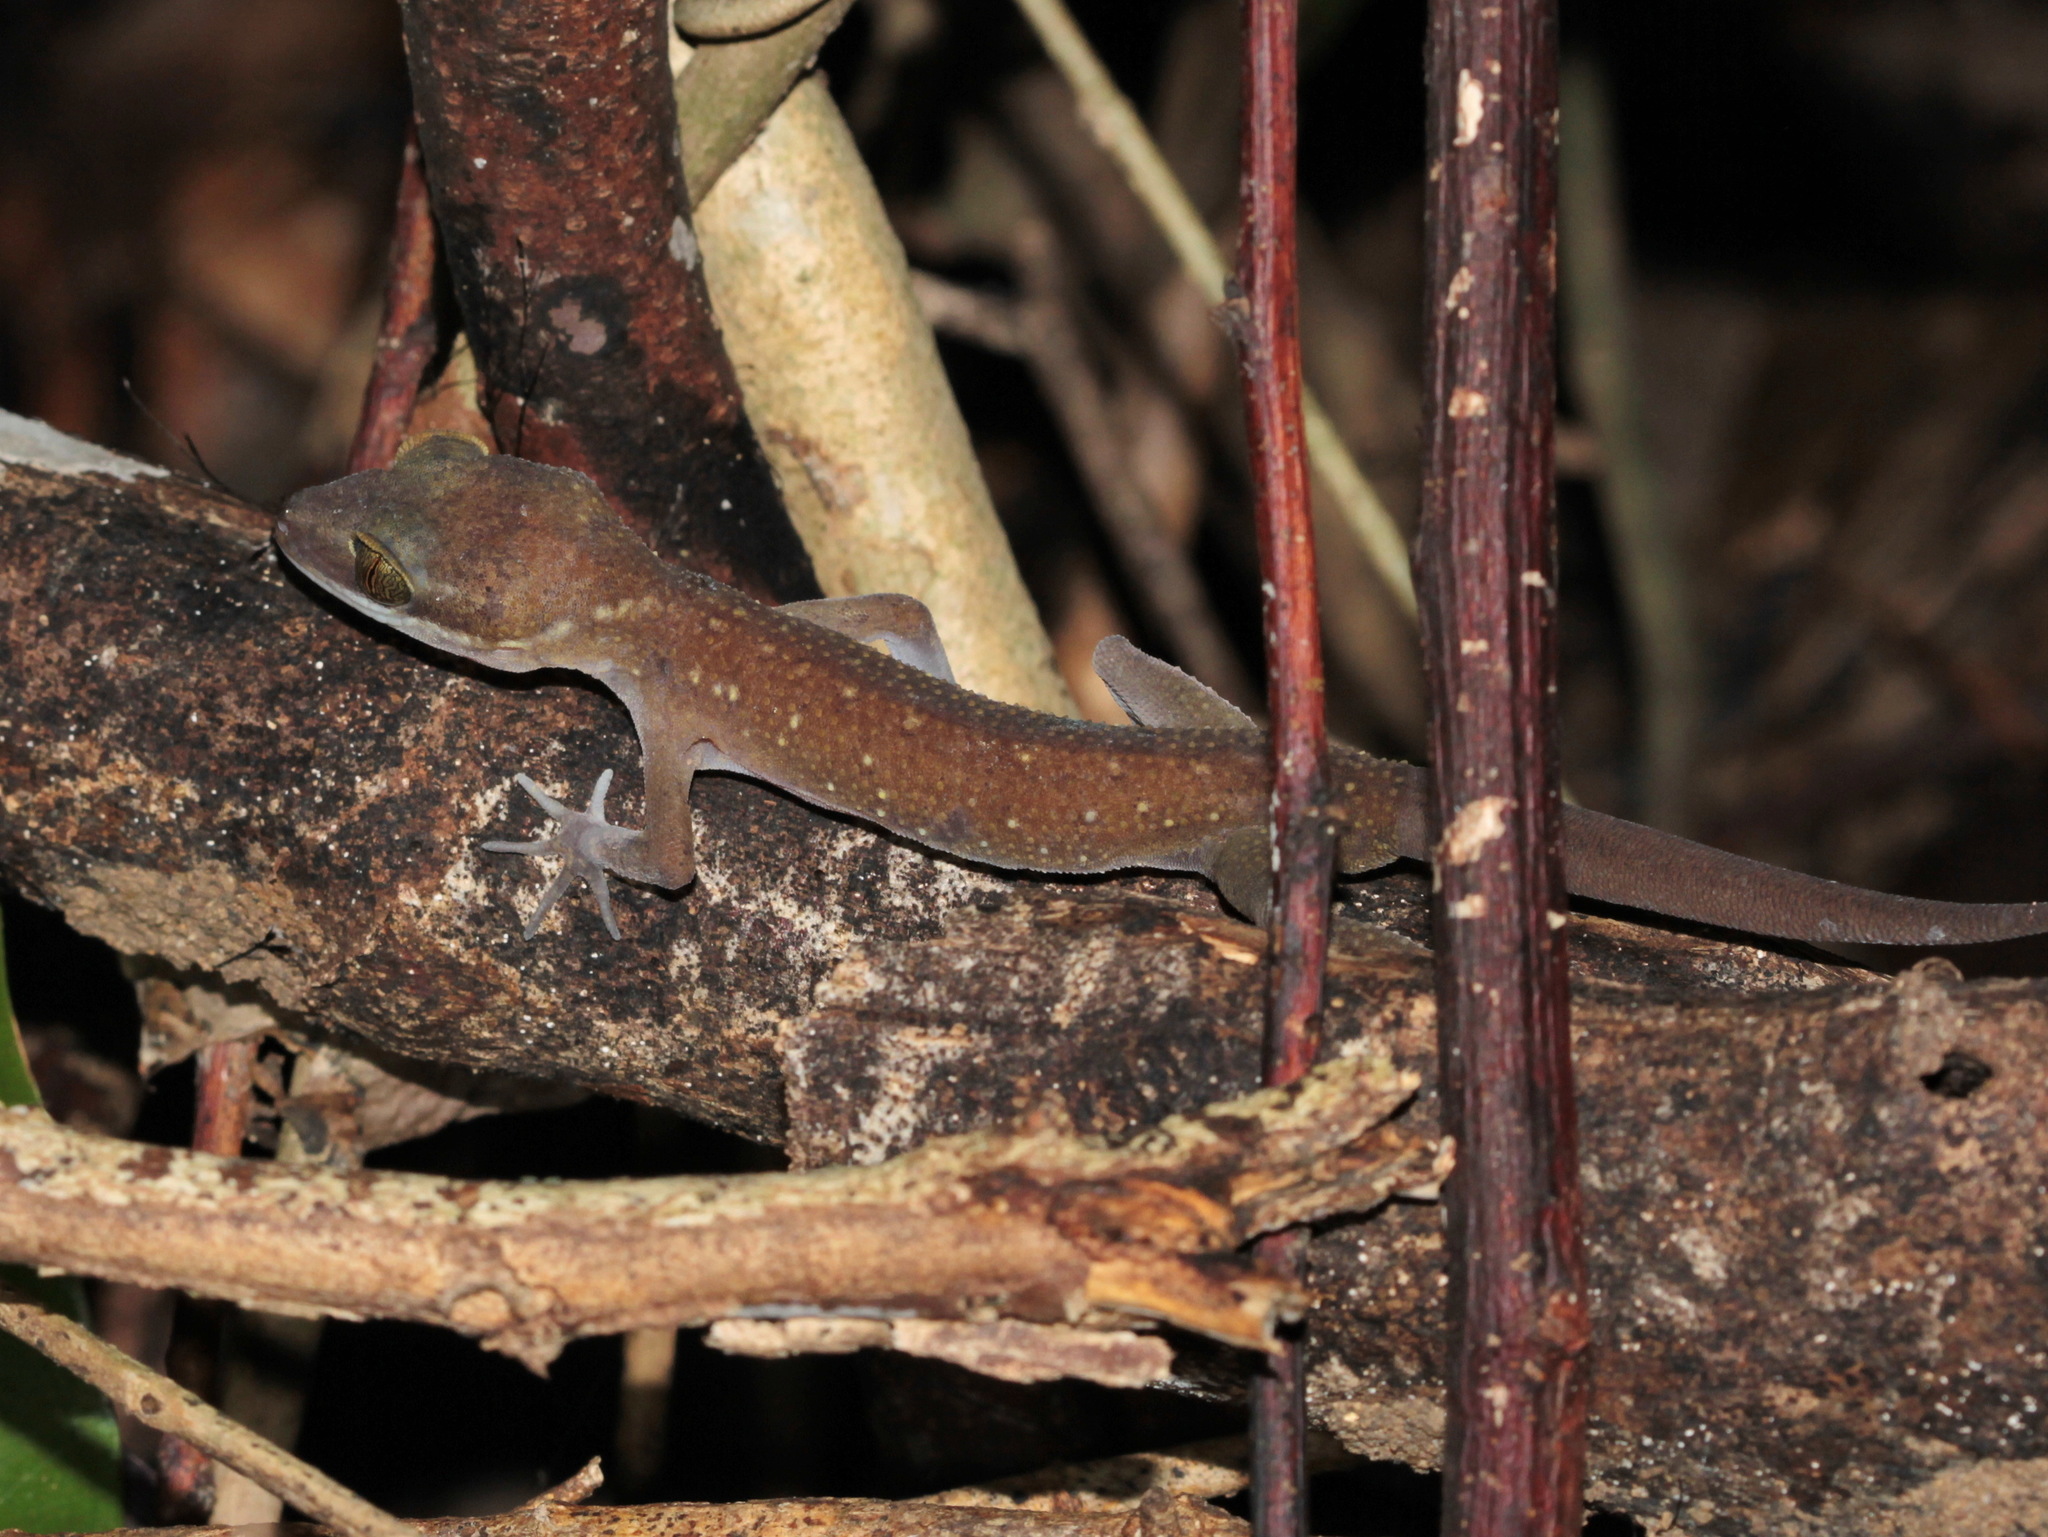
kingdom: Animalia
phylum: Chordata
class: Squamata
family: Gekkonidae
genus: Cyrtodactylus
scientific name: Cyrtodactylus surin
